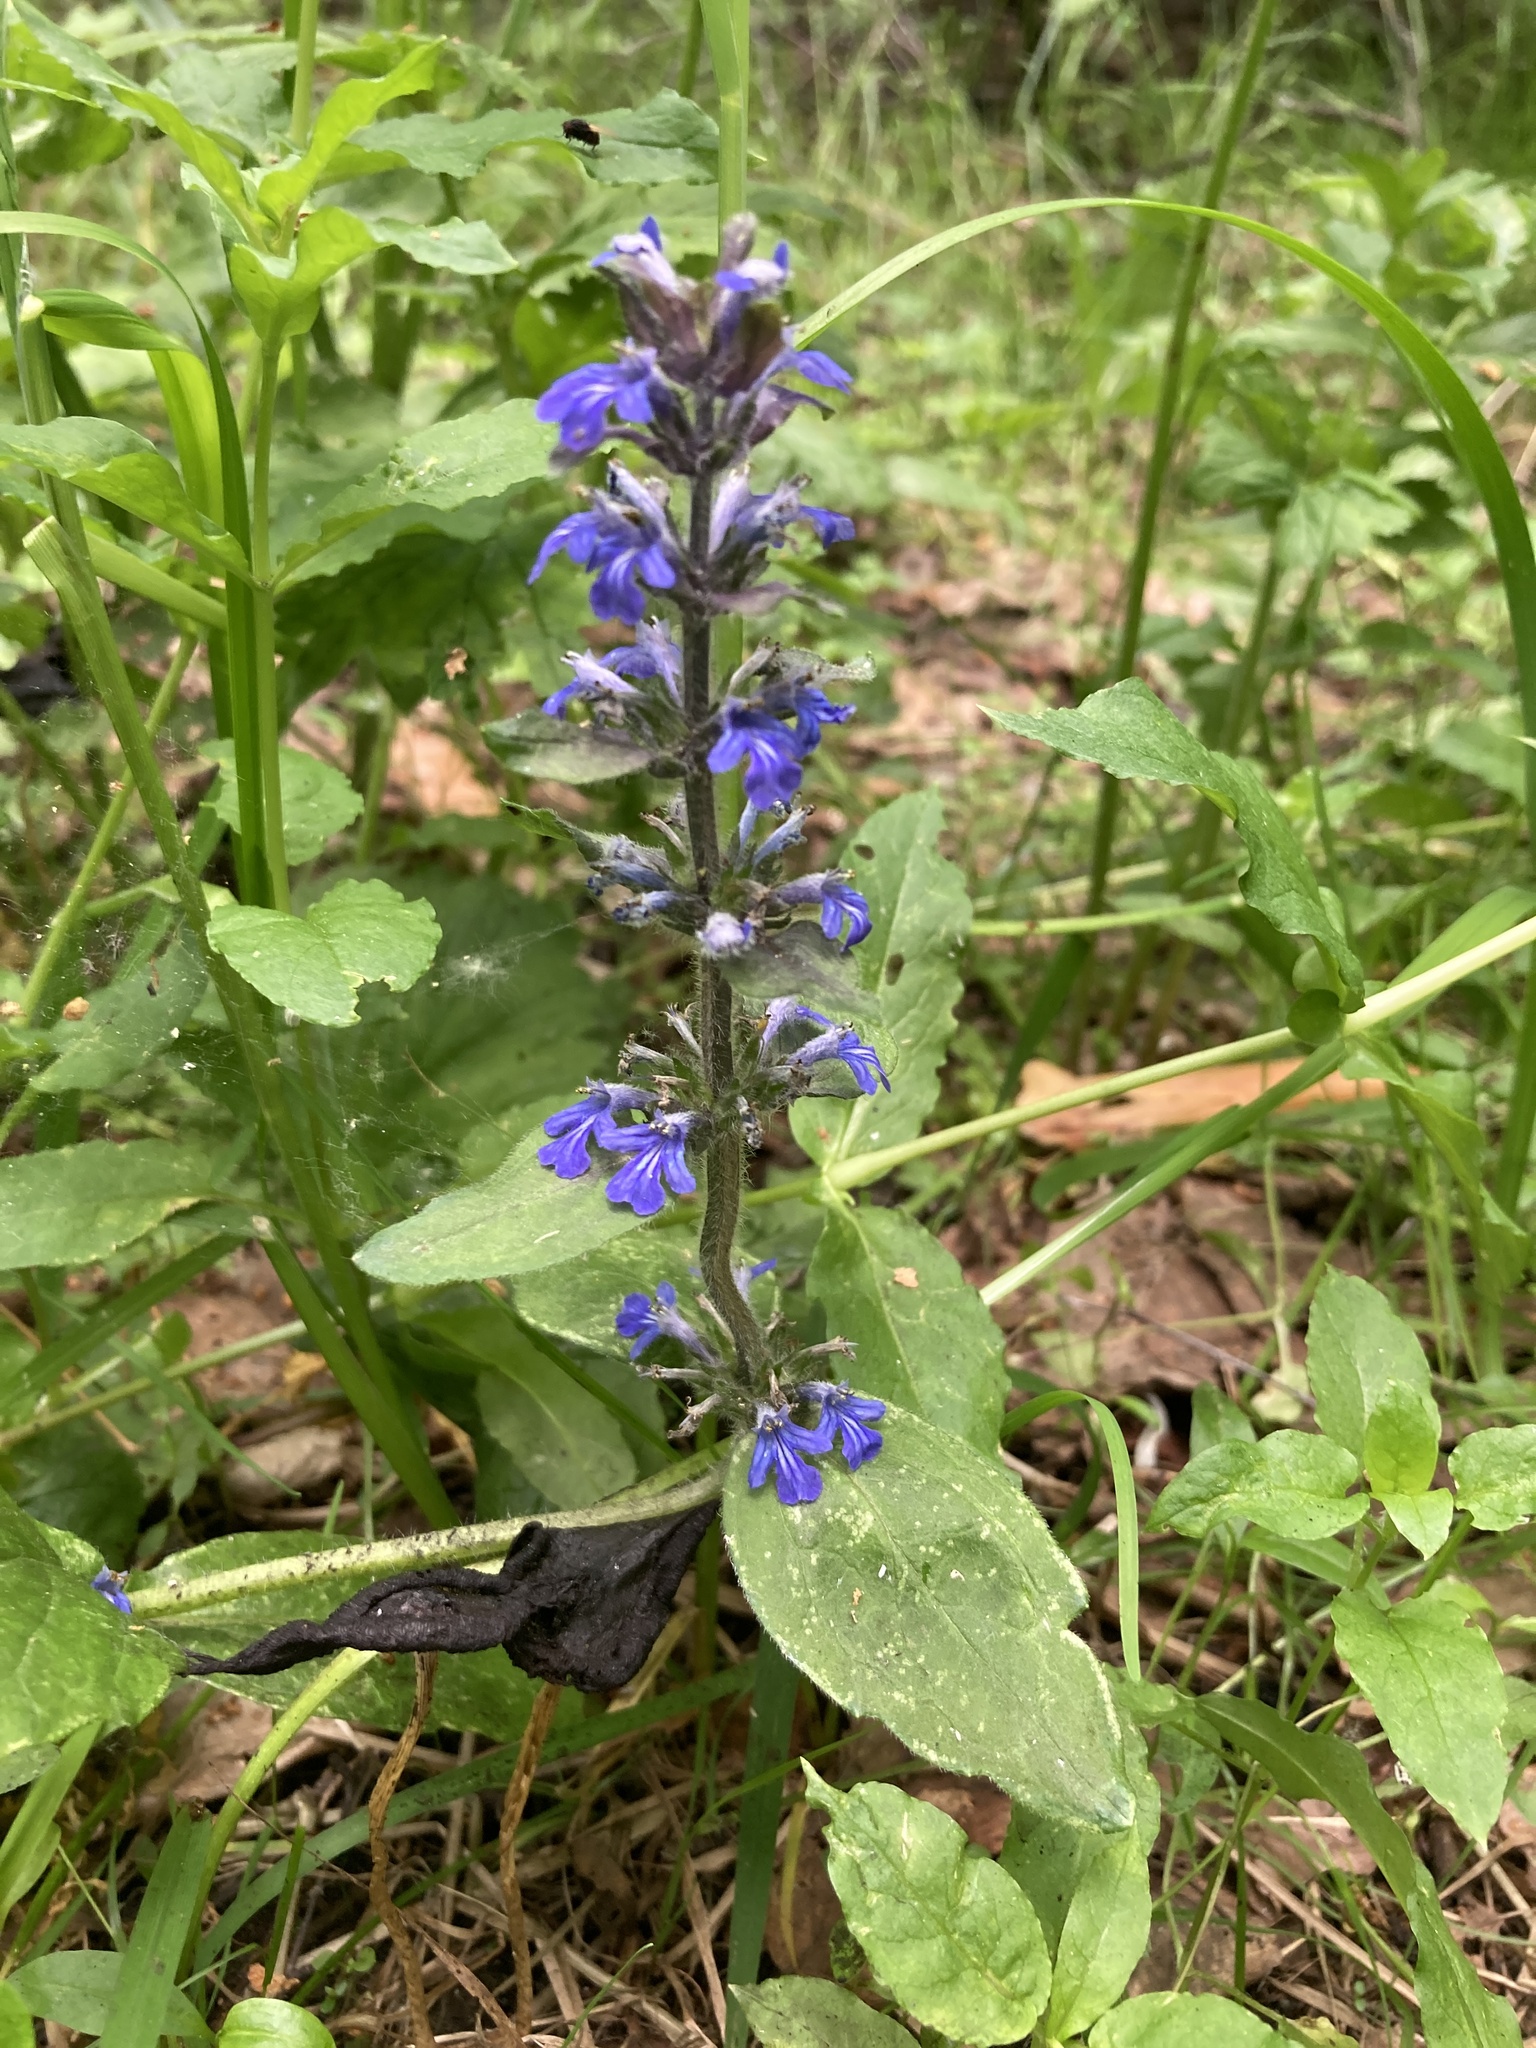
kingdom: Plantae
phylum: Tracheophyta
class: Magnoliopsida
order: Lamiales
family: Lamiaceae
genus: Ajuga
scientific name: Ajuga reptans
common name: Bugle
